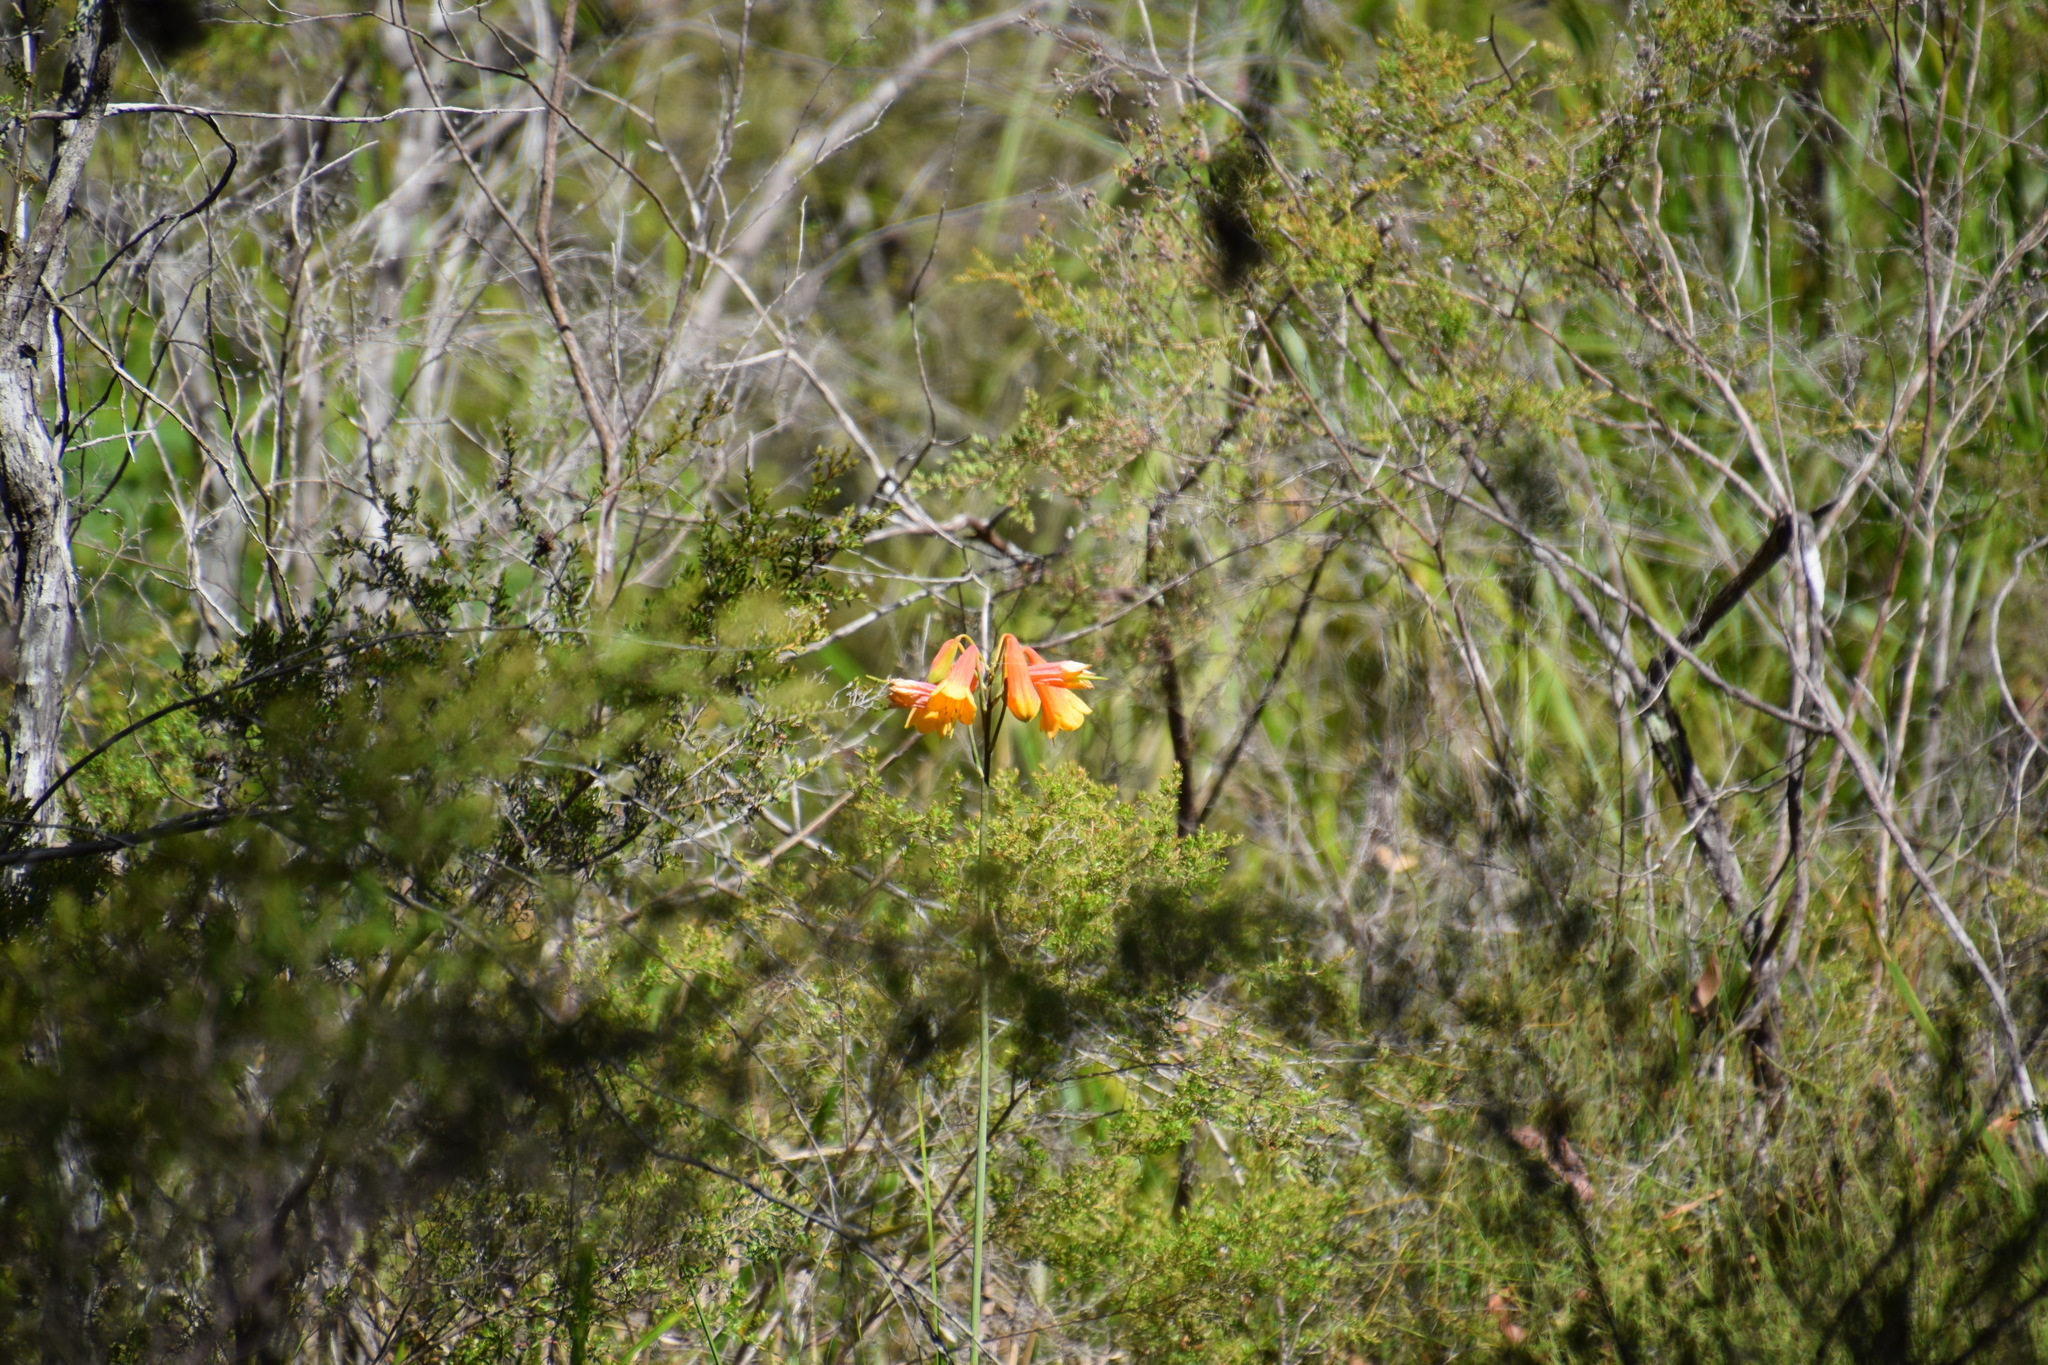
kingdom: Plantae
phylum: Tracheophyta
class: Liliopsida
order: Asparagales
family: Blandfordiaceae
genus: Blandfordia
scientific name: Blandfordia grandiflora
